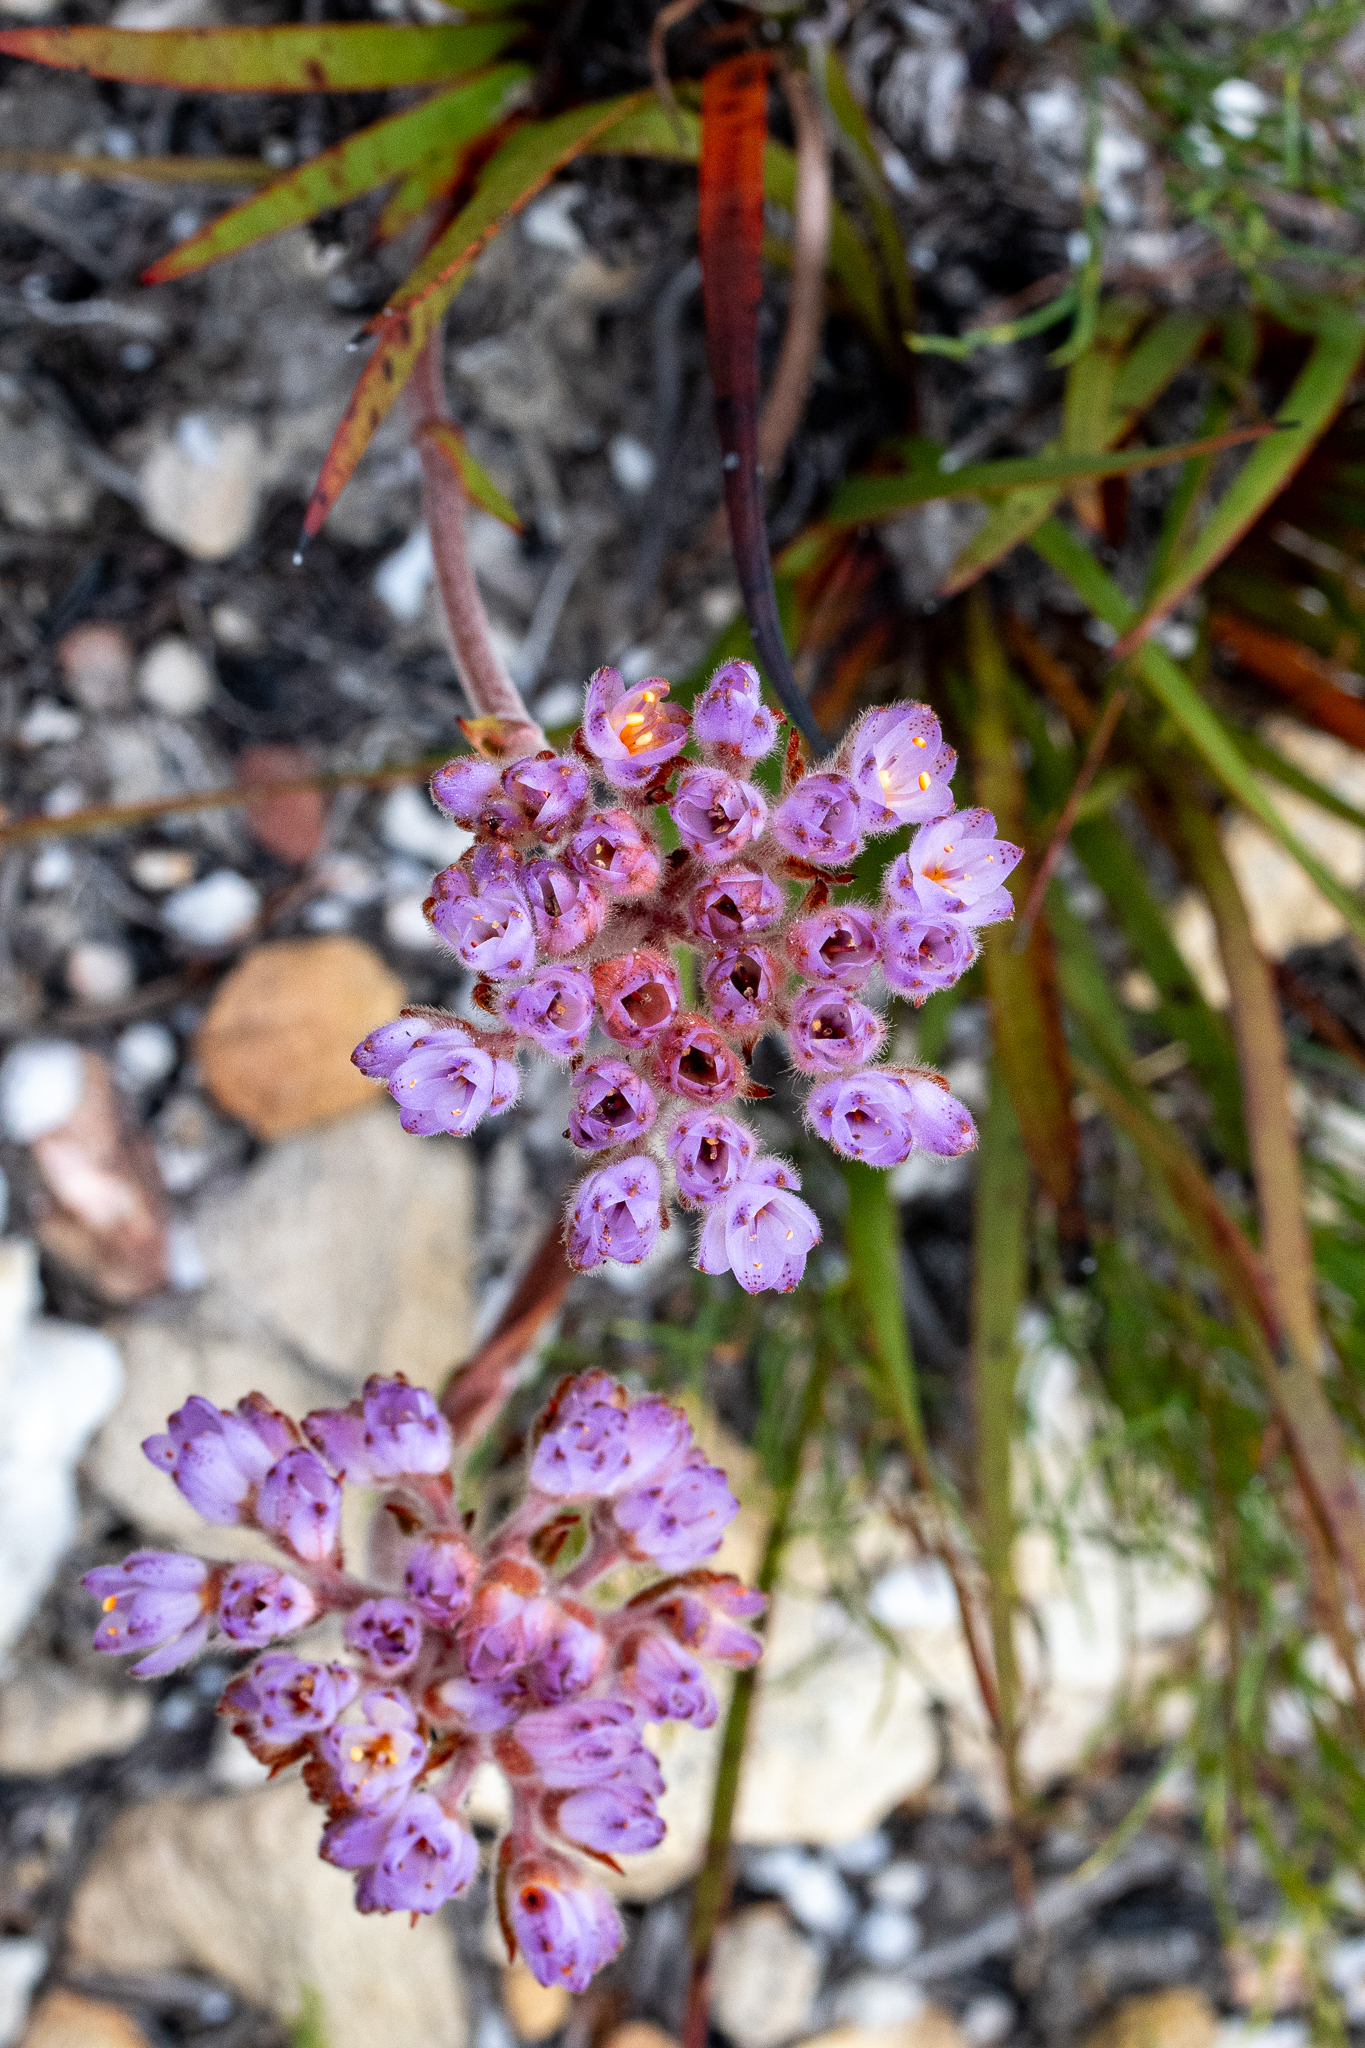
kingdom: Plantae
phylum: Tracheophyta
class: Liliopsida
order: Commelinales
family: Haemodoraceae
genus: Dilatris
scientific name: Dilatris pillansii
